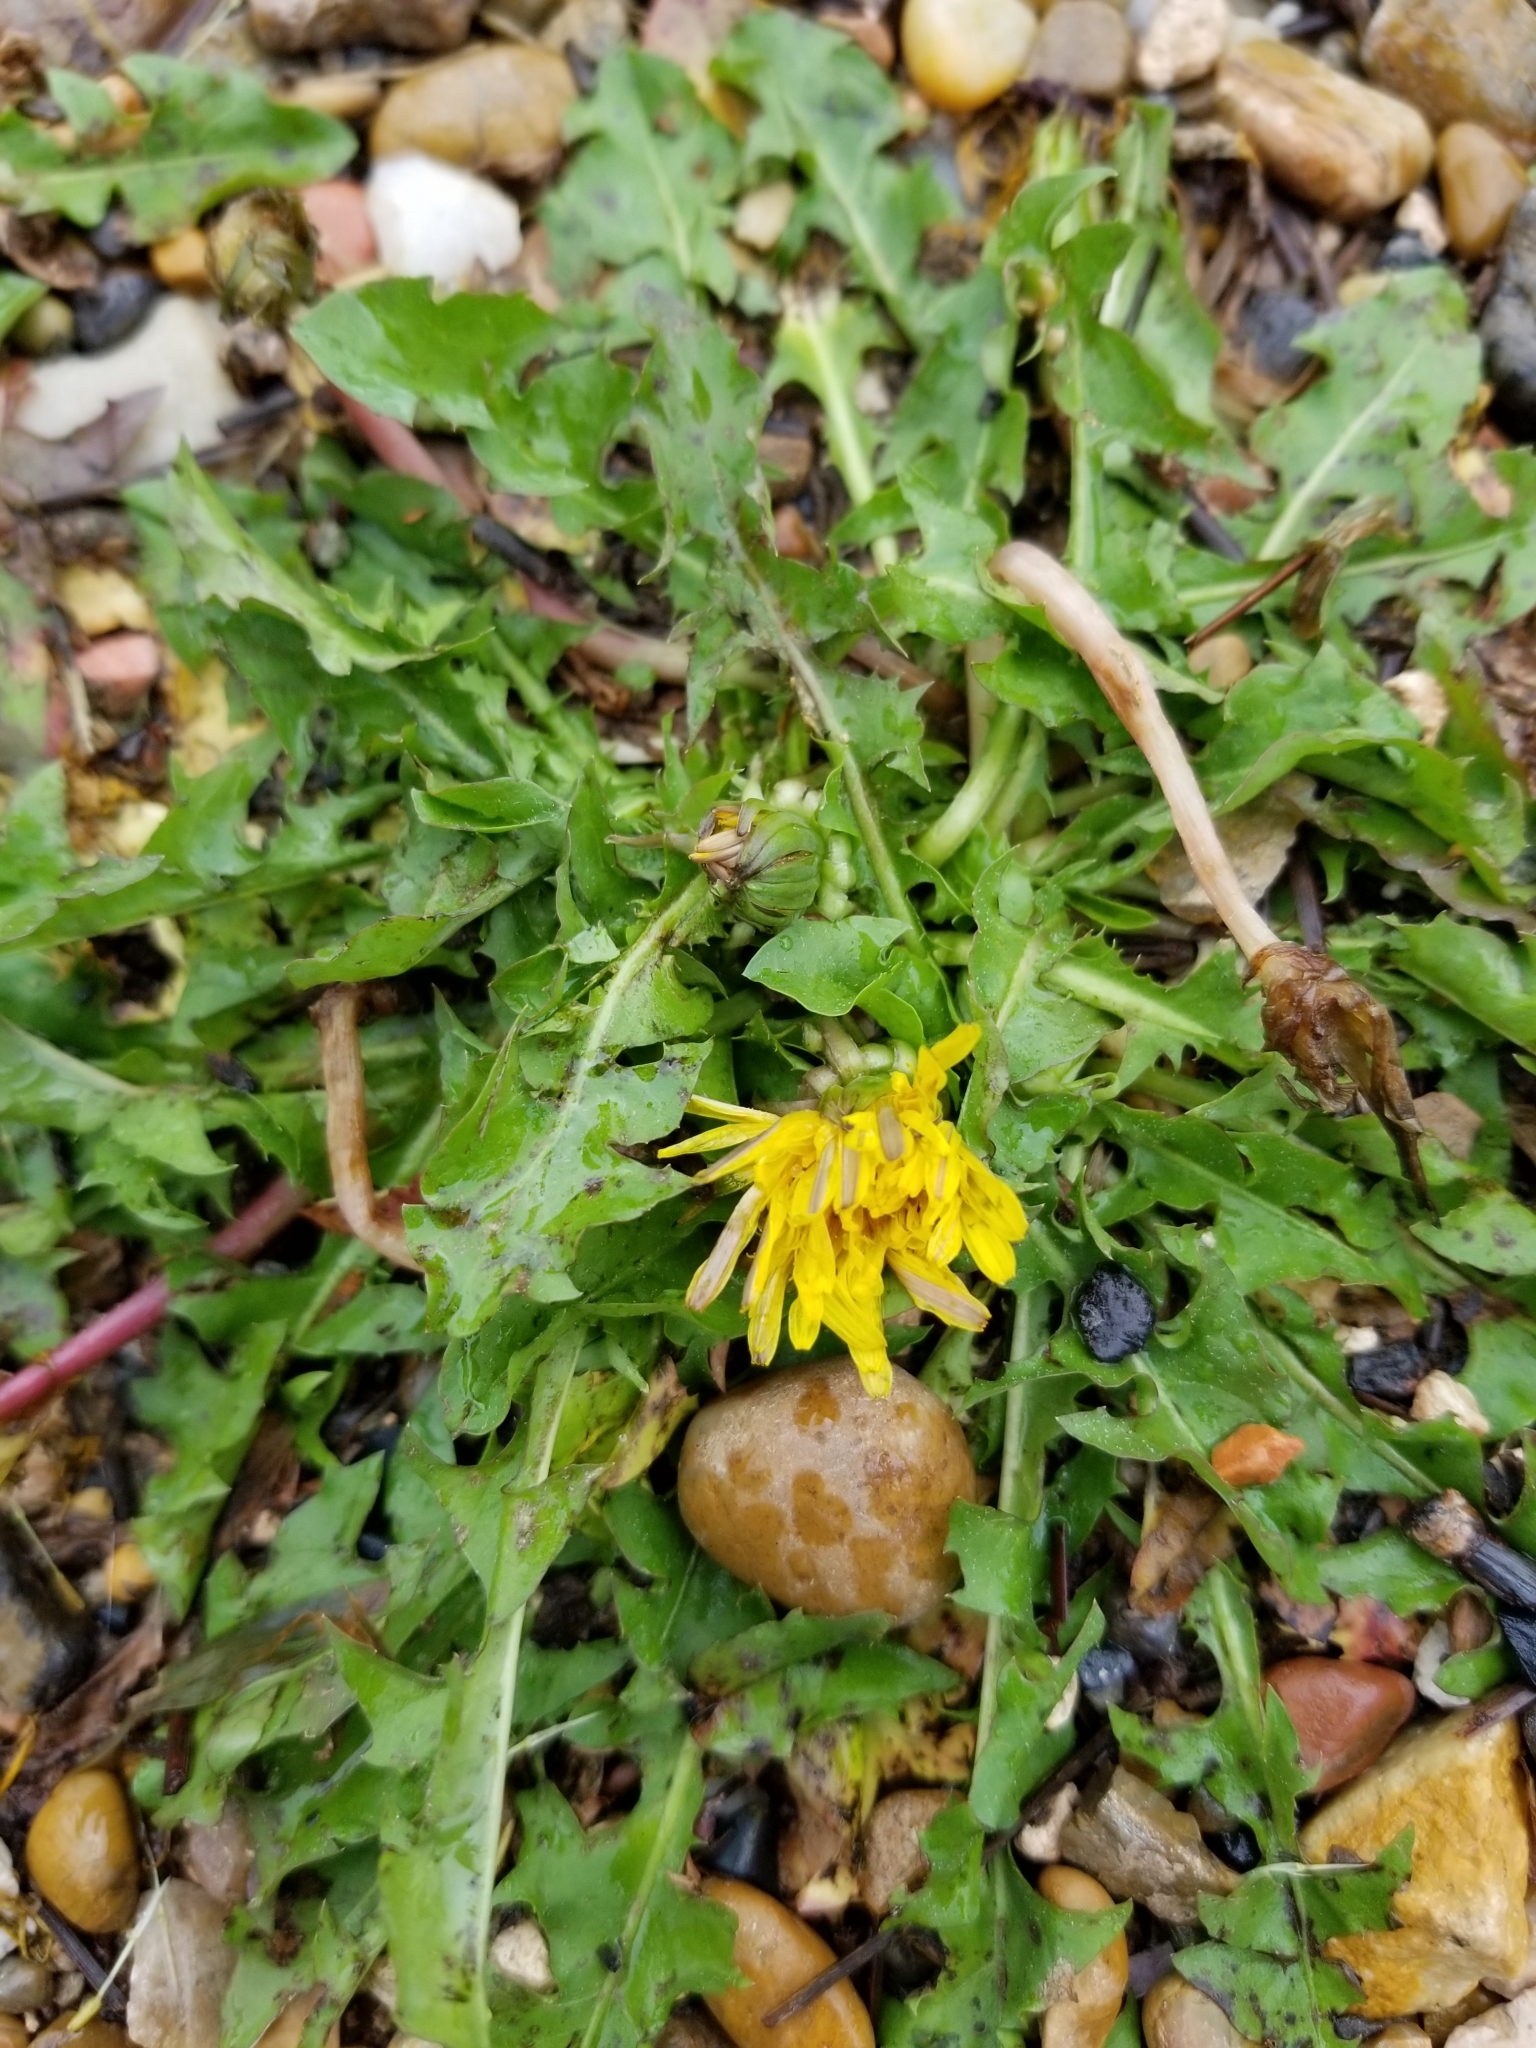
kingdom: Plantae
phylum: Tracheophyta
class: Magnoliopsida
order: Asterales
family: Asteraceae
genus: Taraxacum
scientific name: Taraxacum officinale
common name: Common dandelion
